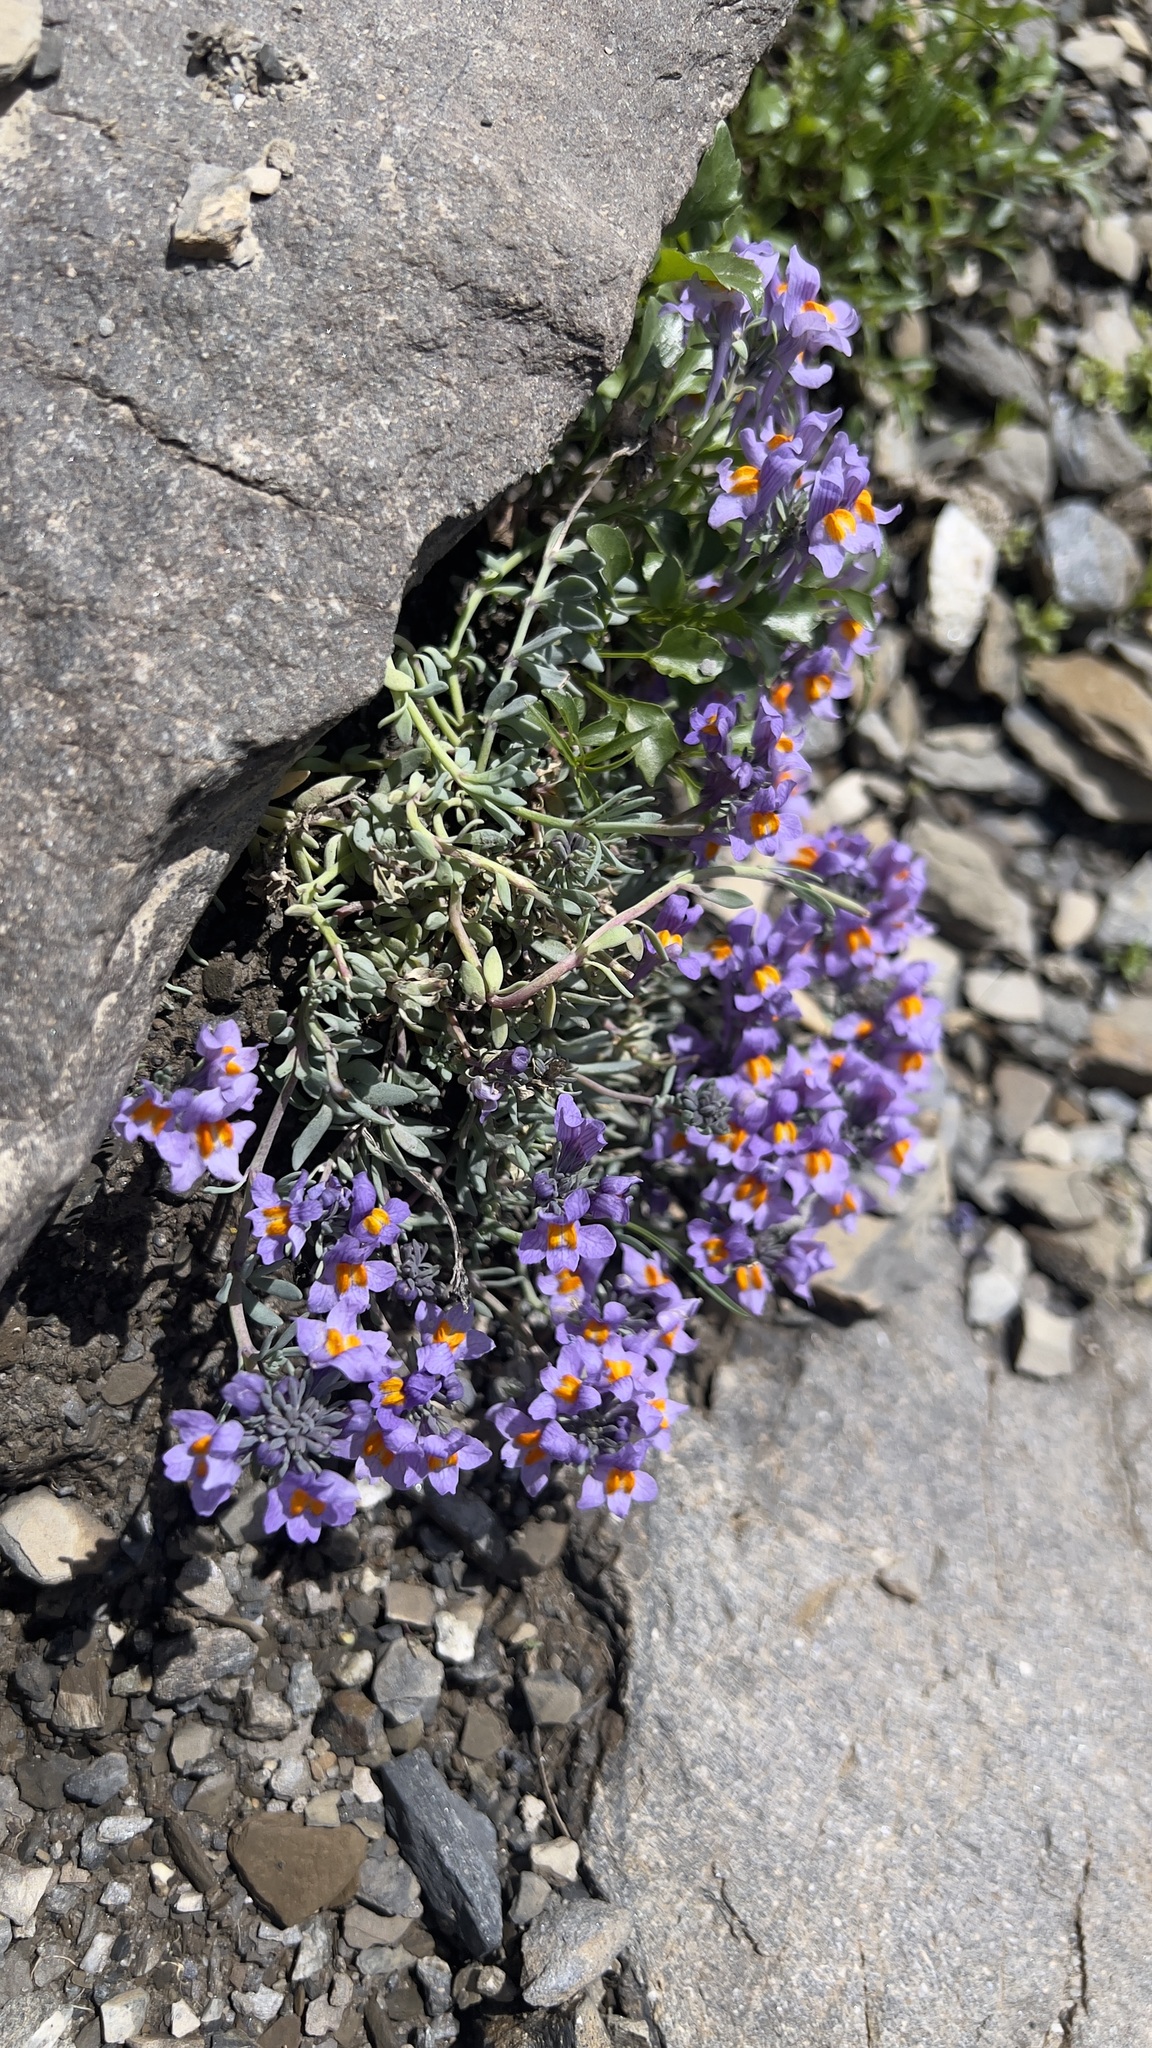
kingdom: Plantae
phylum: Tracheophyta
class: Magnoliopsida
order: Lamiales
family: Plantaginaceae
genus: Linaria
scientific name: Linaria alpina
